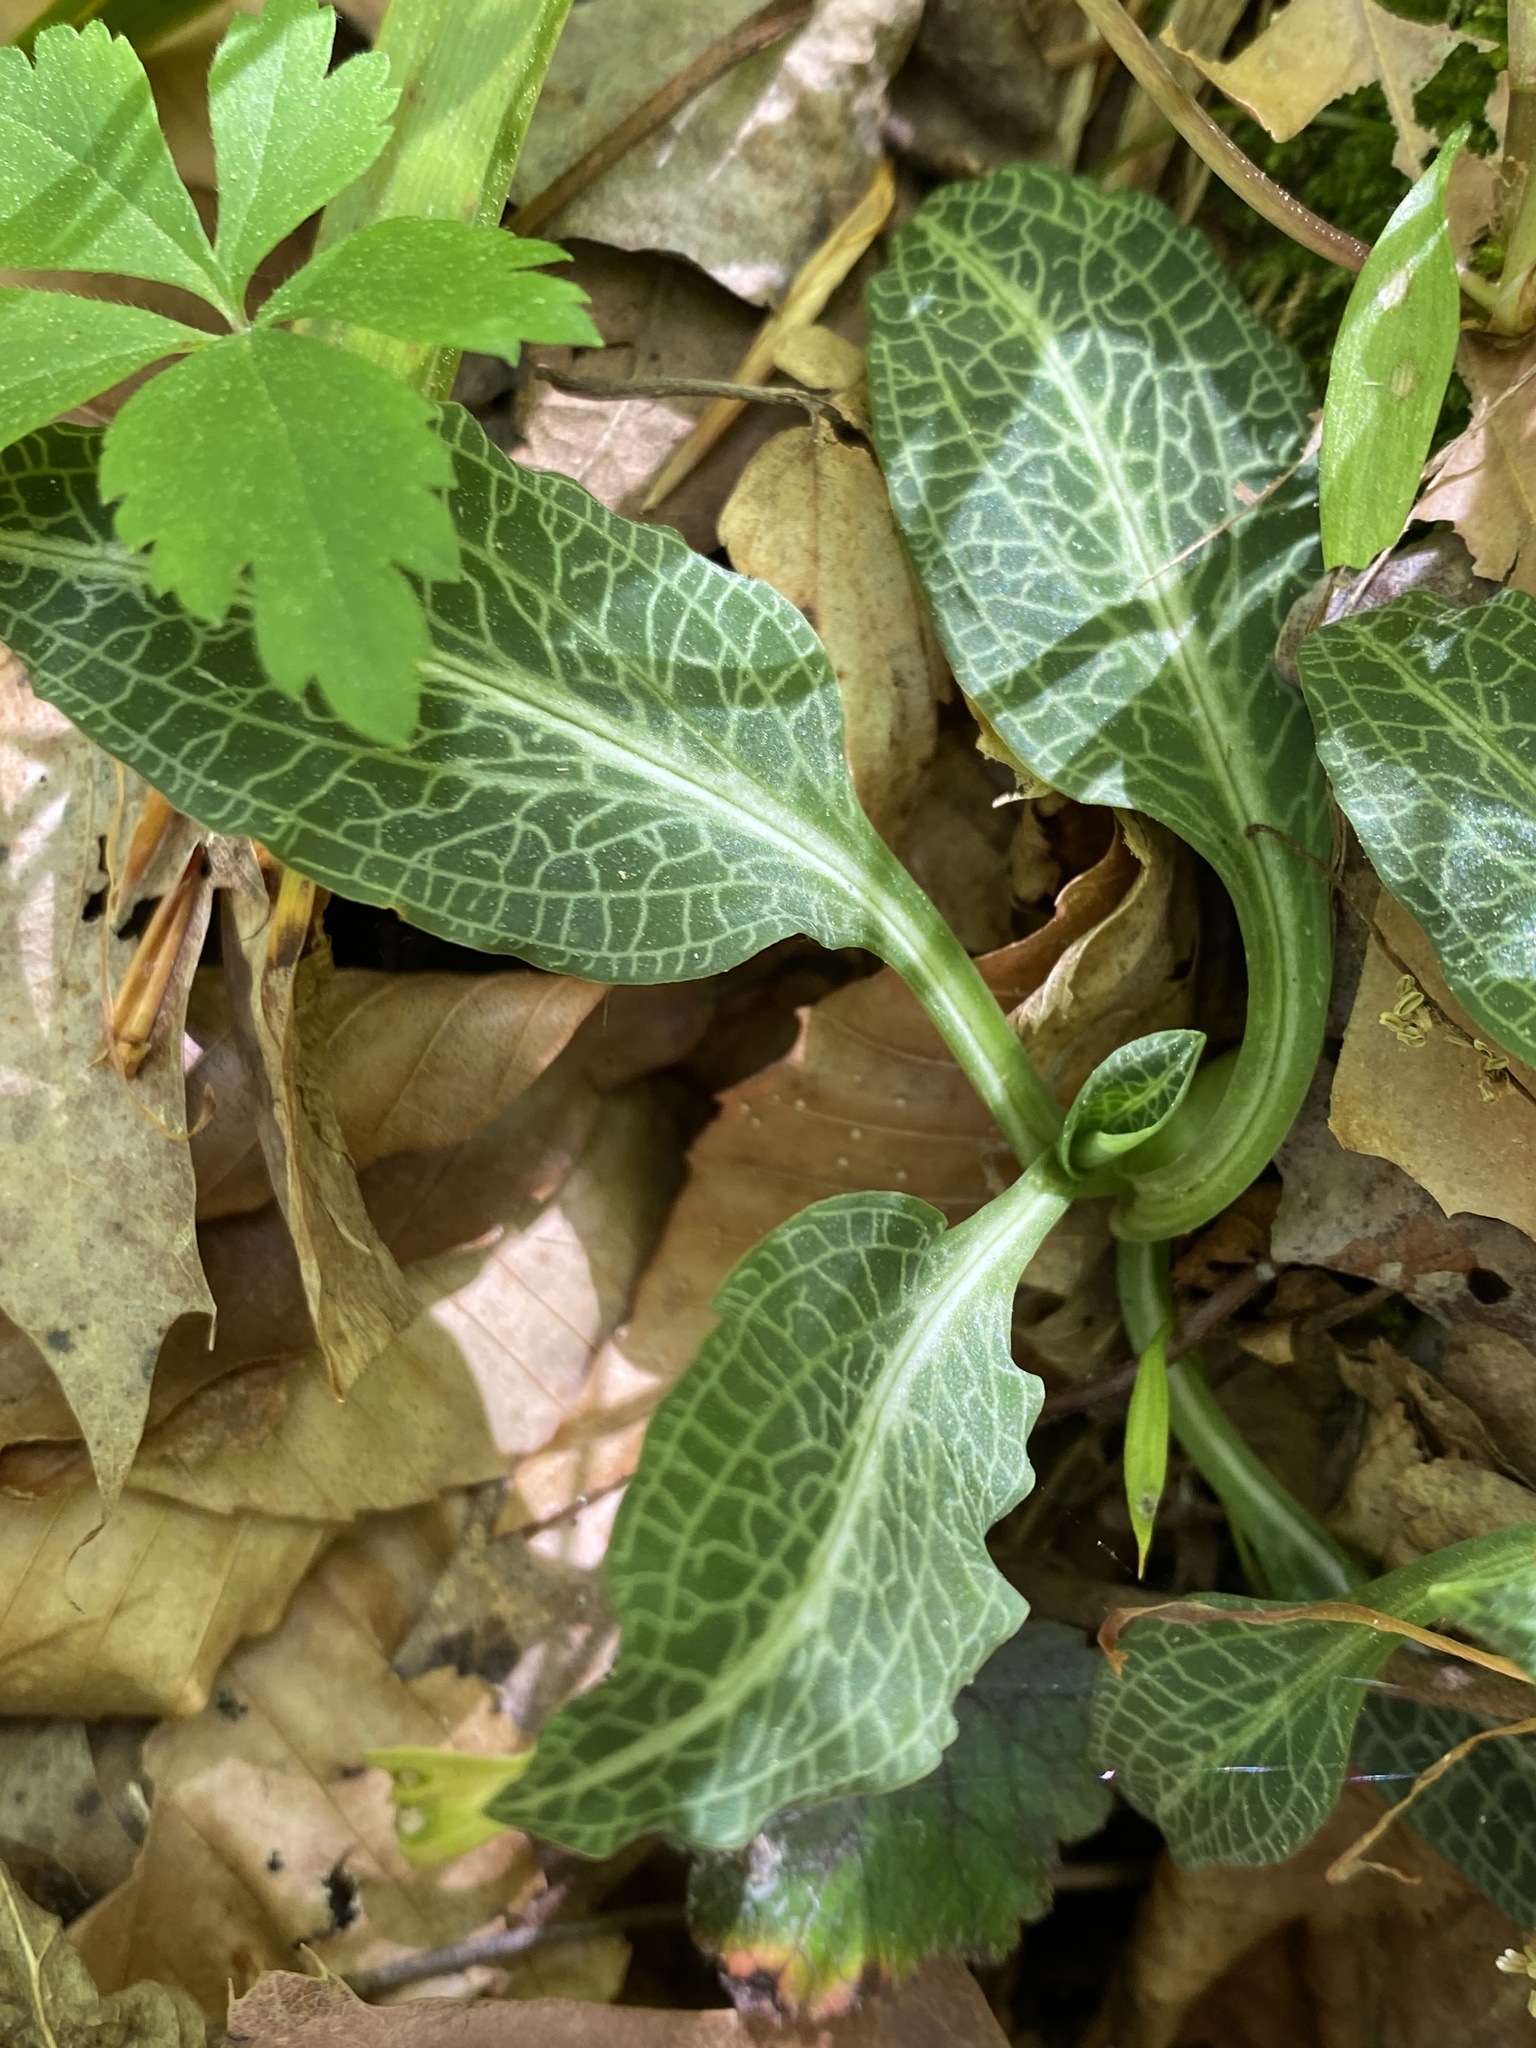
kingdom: Plantae
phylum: Tracheophyta
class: Liliopsida
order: Asparagales
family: Orchidaceae
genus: Goodyera
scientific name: Goodyera pubescens
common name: Downy rattlesnake-plantain
